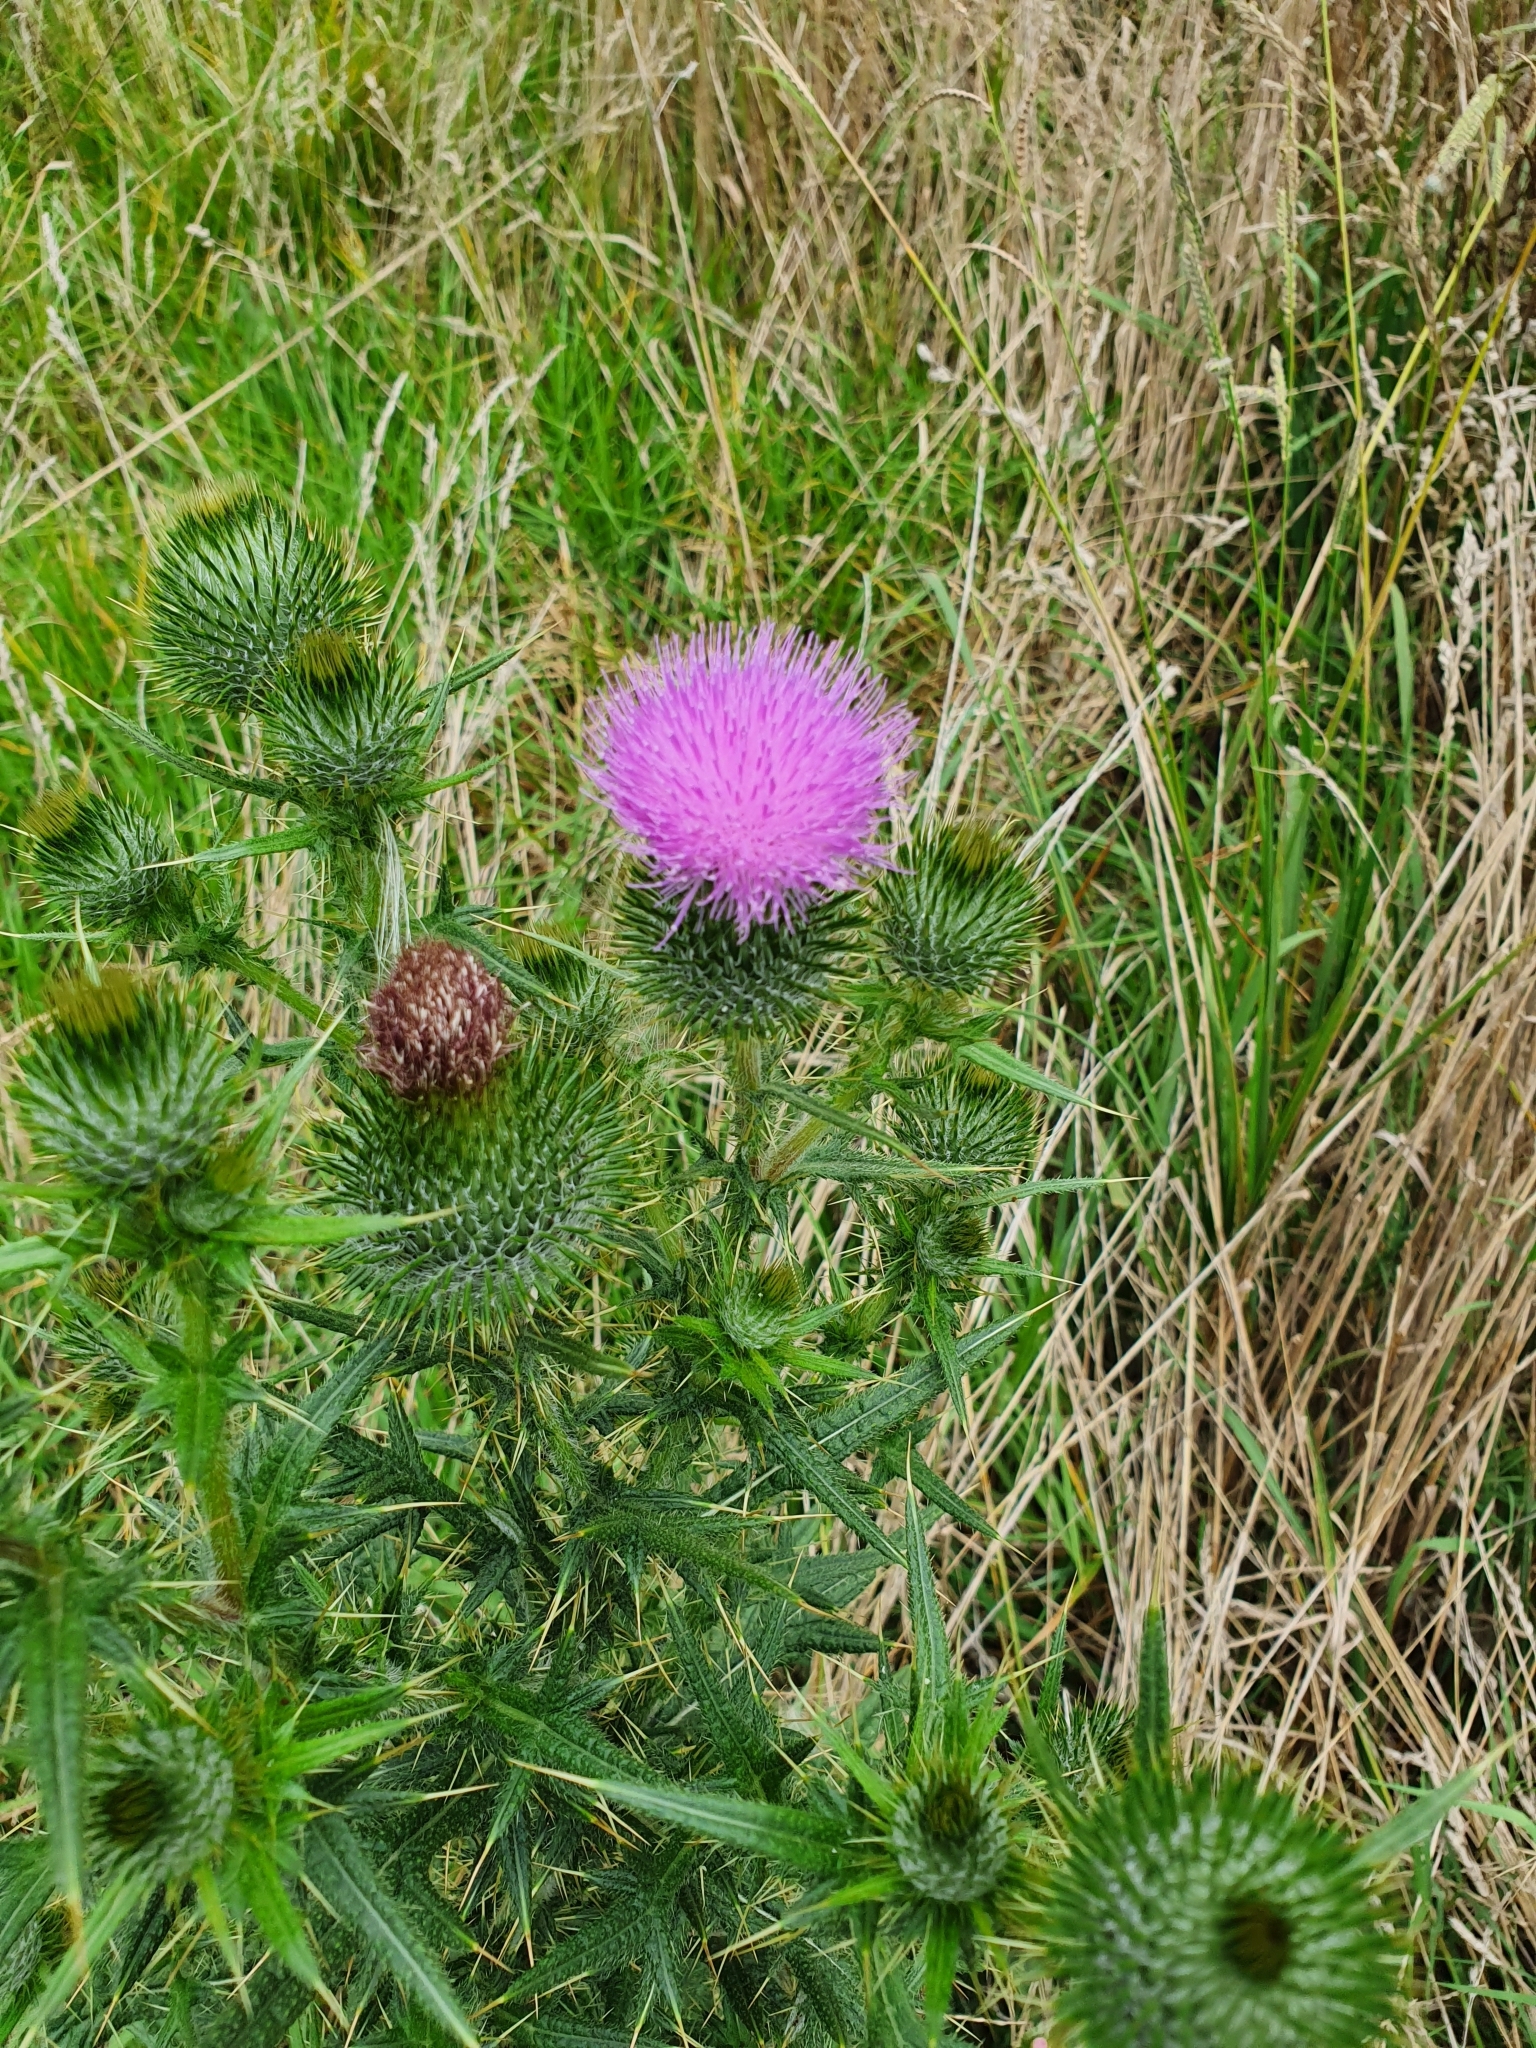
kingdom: Plantae
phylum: Tracheophyta
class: Magnoliopsida
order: Asterales
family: Asteraceae
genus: Cirsium
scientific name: Cirsium vulgare
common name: Bull thistle
